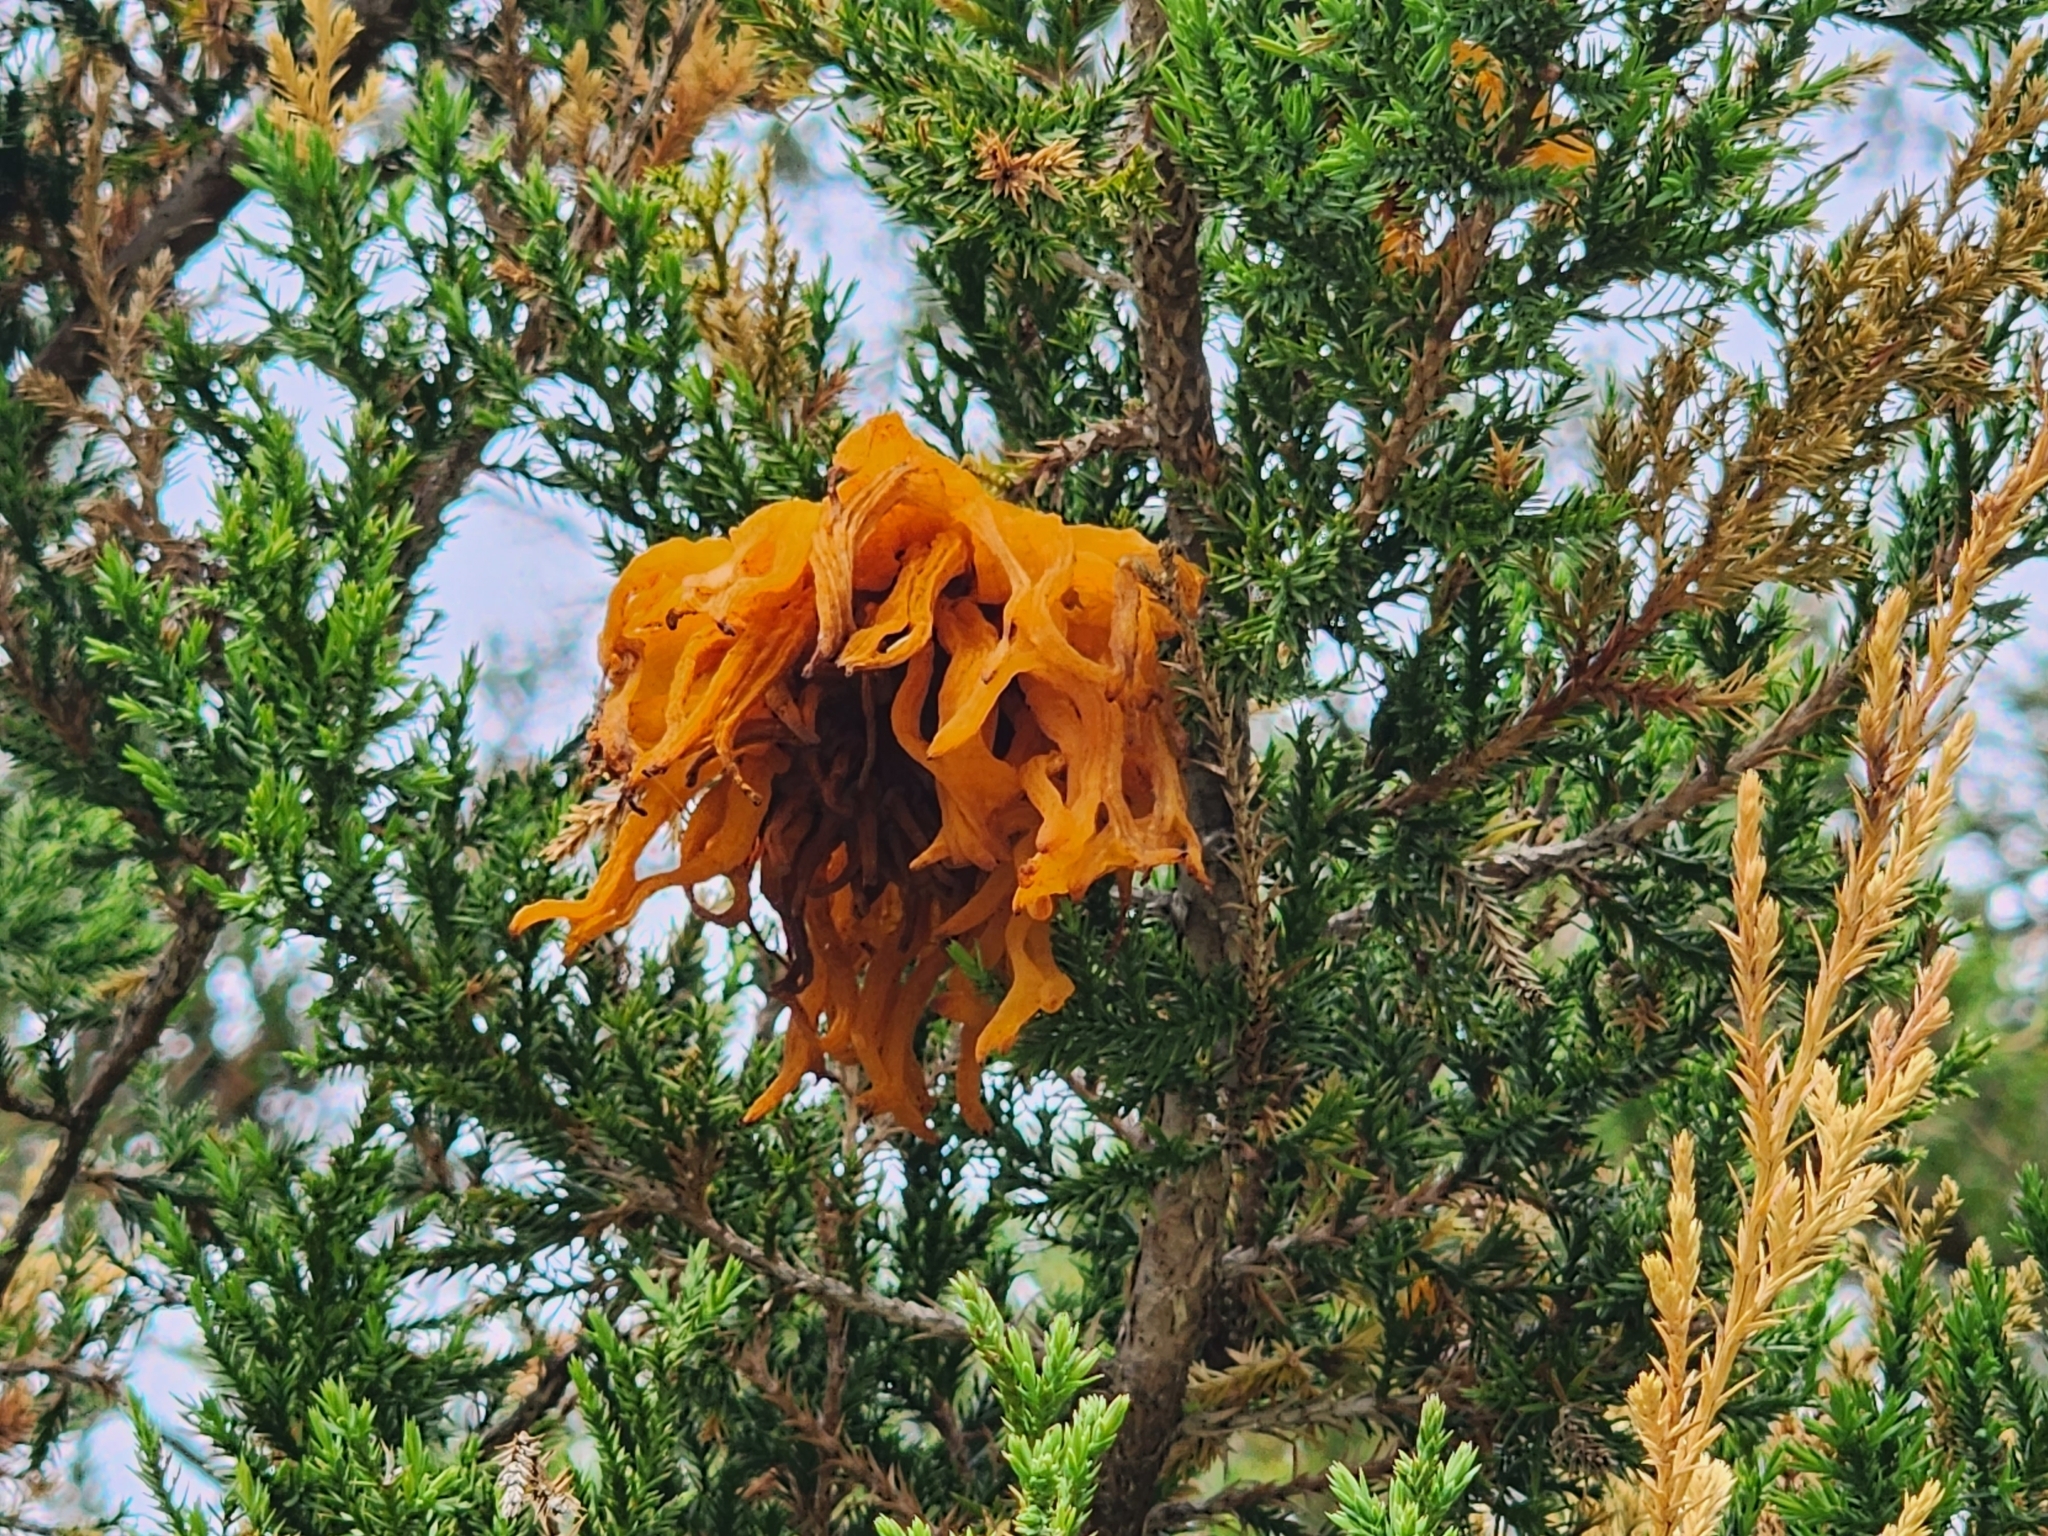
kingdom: Fungi
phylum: Basidiomycota
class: Pucciniomycetes
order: Pucciniales
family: Gymnosporangiaceae
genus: Gymnosporangium
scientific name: Gymnosporangium juniperi-virginianae
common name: Juniper-apple rust
